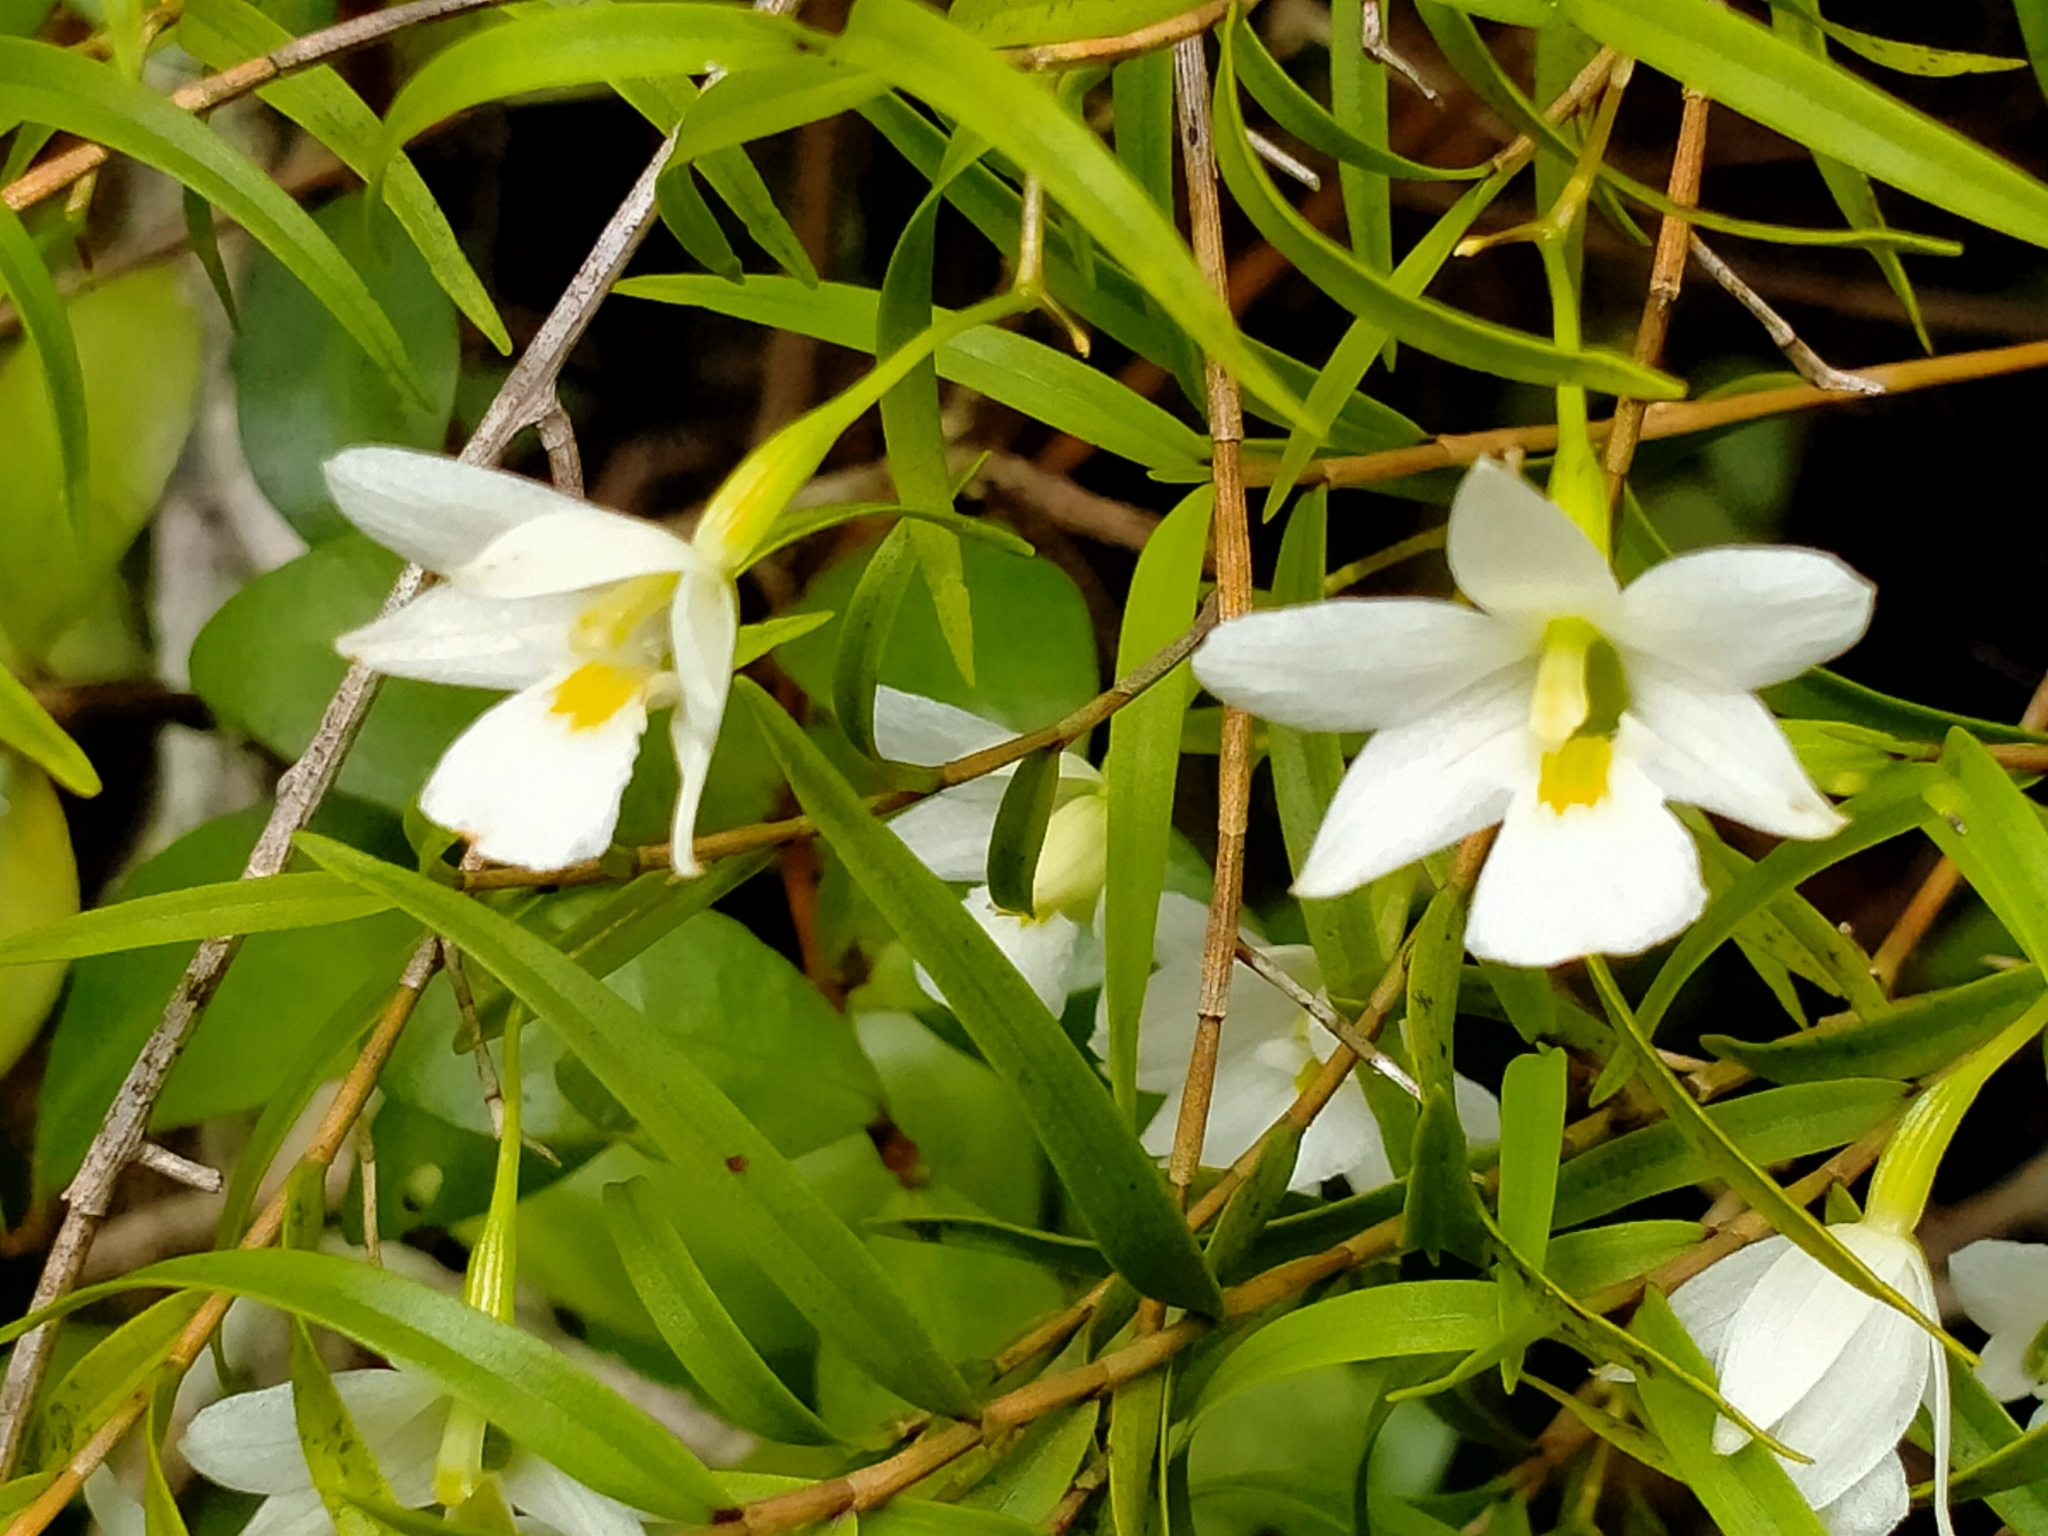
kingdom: Plantae
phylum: Tracheophyta
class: Liliopsida
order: Asparagales
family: Orchidaceae
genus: Dendrobium
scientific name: Dendrobium cunninghamii
